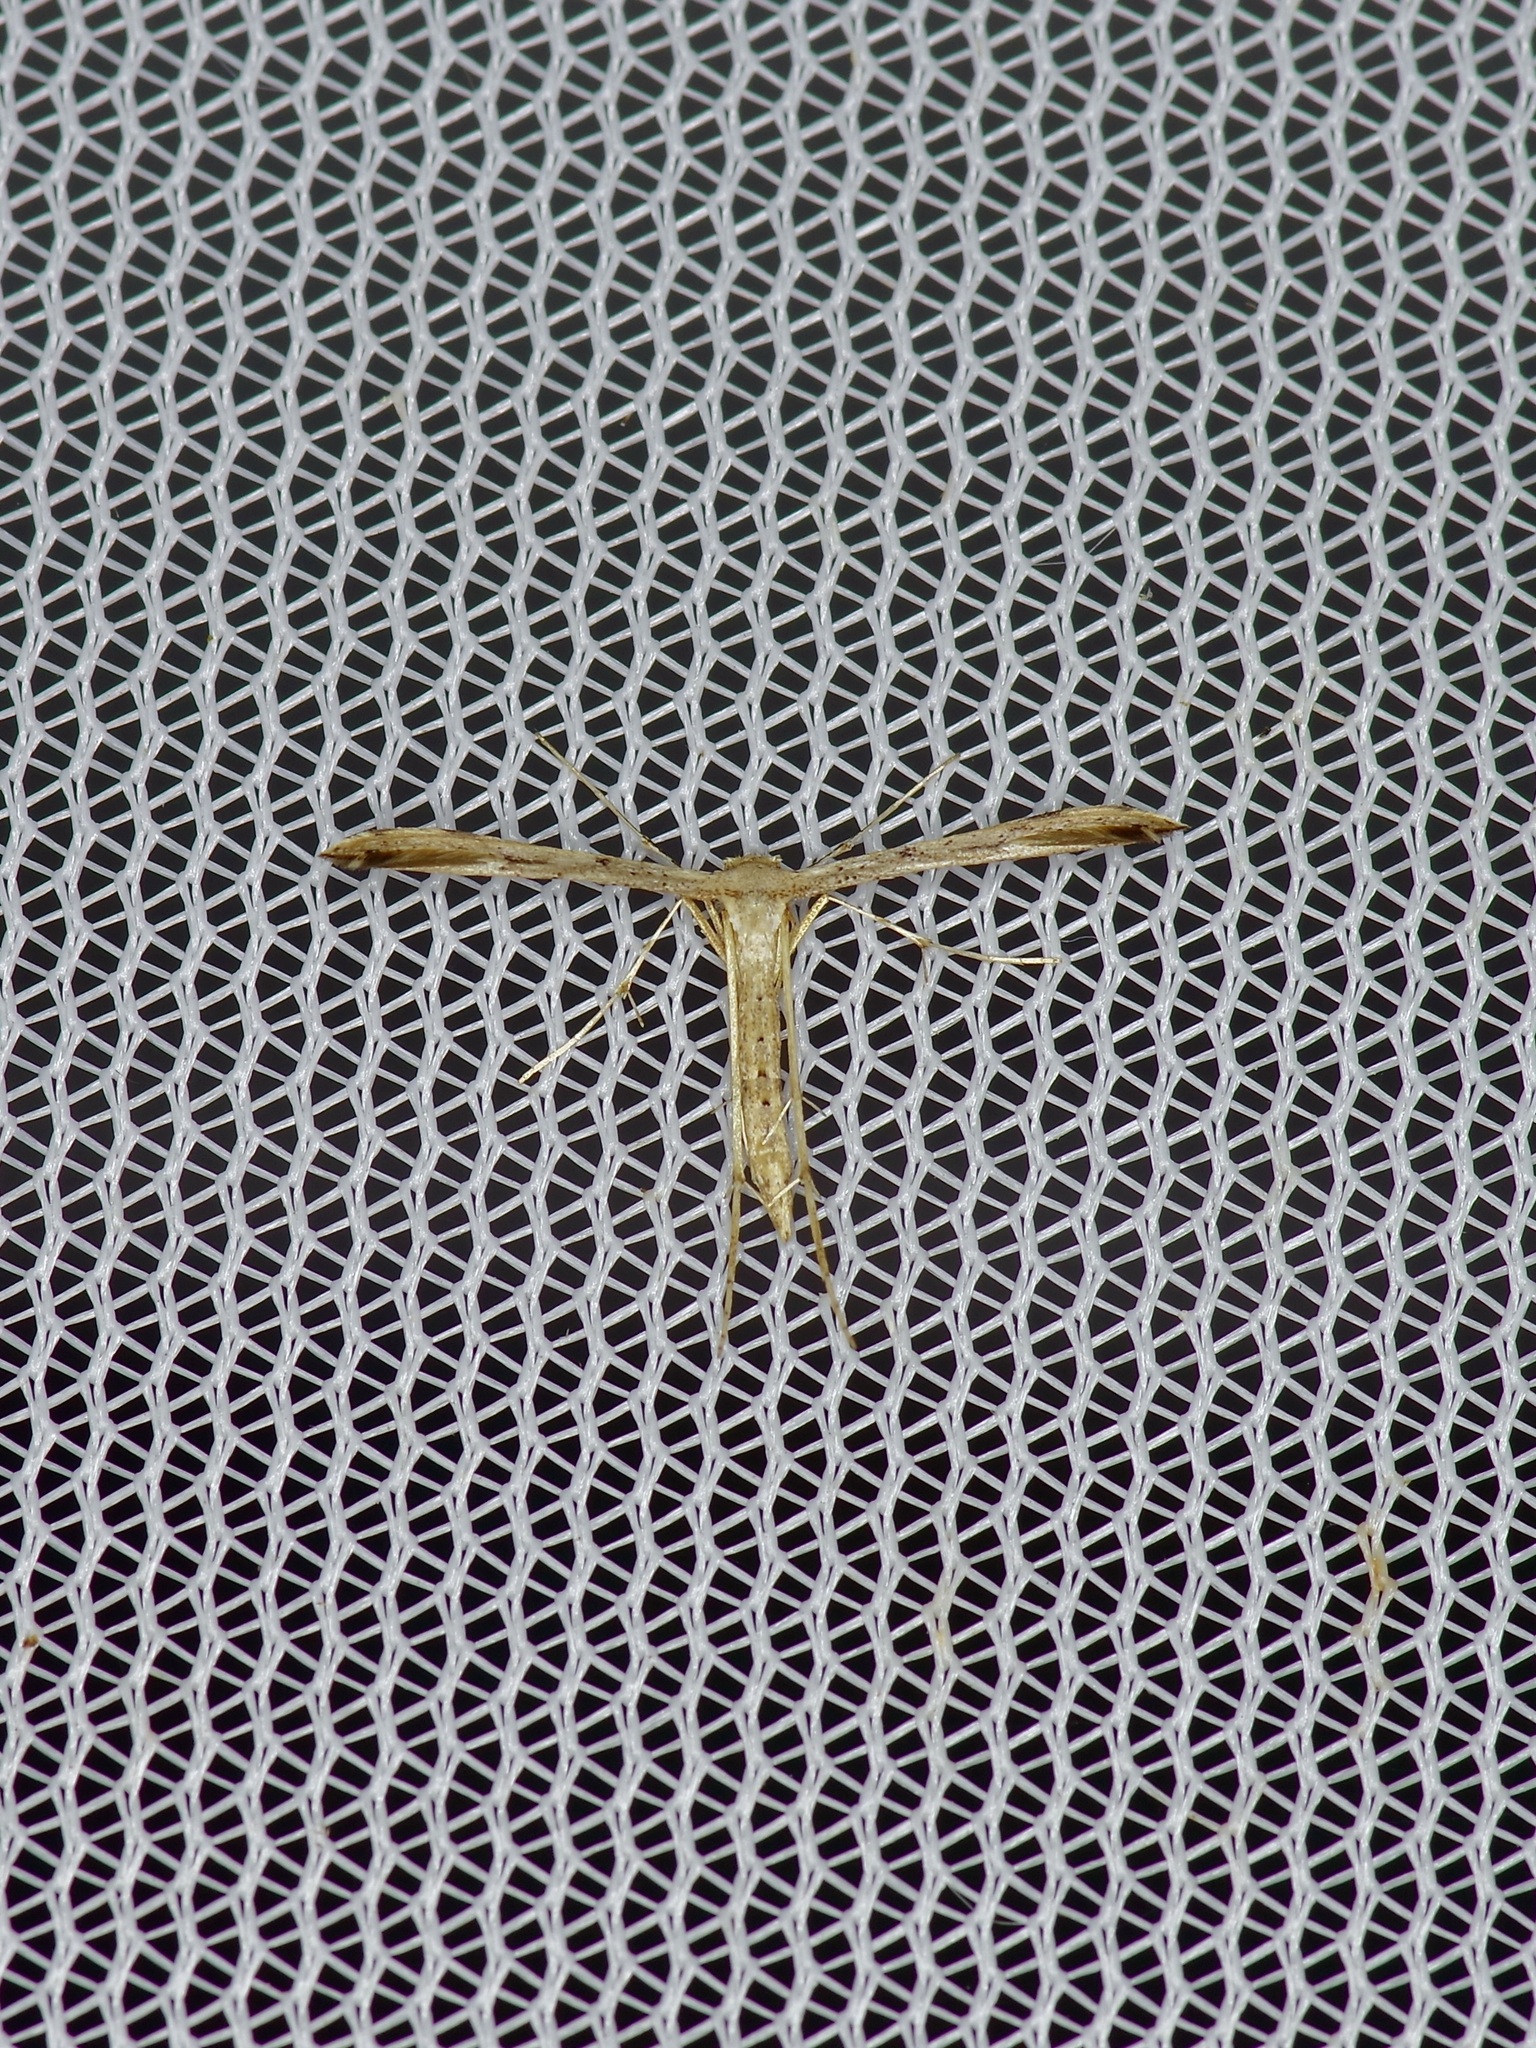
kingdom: Animalia
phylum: Arthropoda
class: Insecta
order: Lepidoptera
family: Pterophoridae
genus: Adaina
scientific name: Adaina ambrosiae
